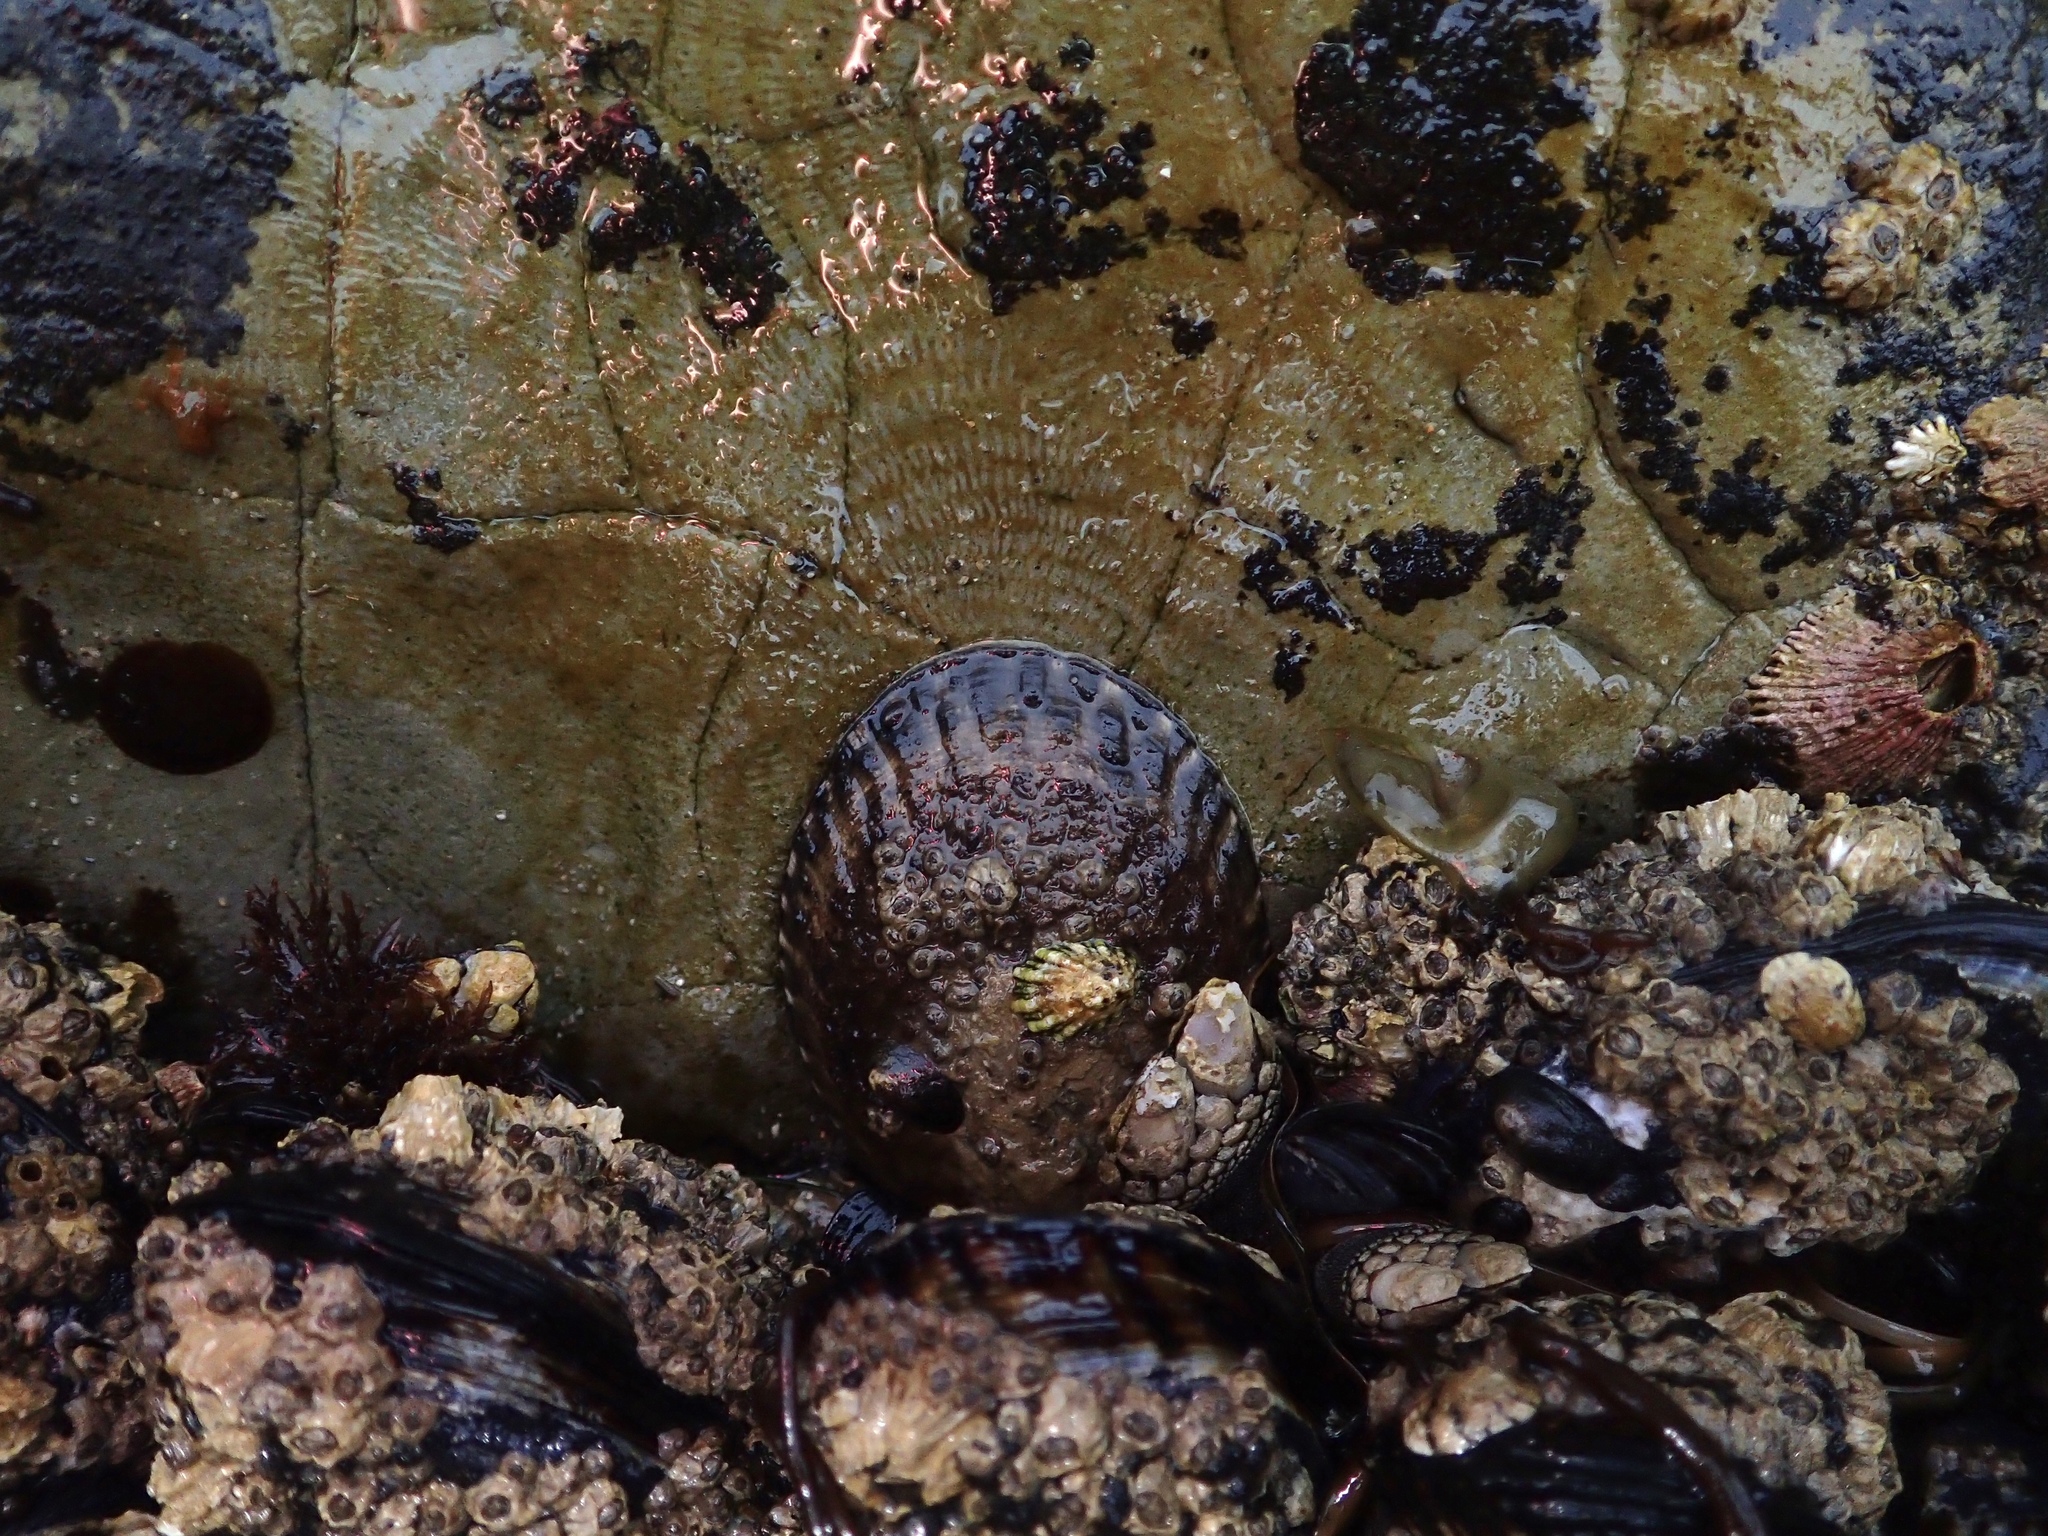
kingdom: Animalia
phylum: Mollusca
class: Gastropoda
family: Lottiidae
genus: Lottia
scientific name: Lottia gigantea
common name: Owl limpet
